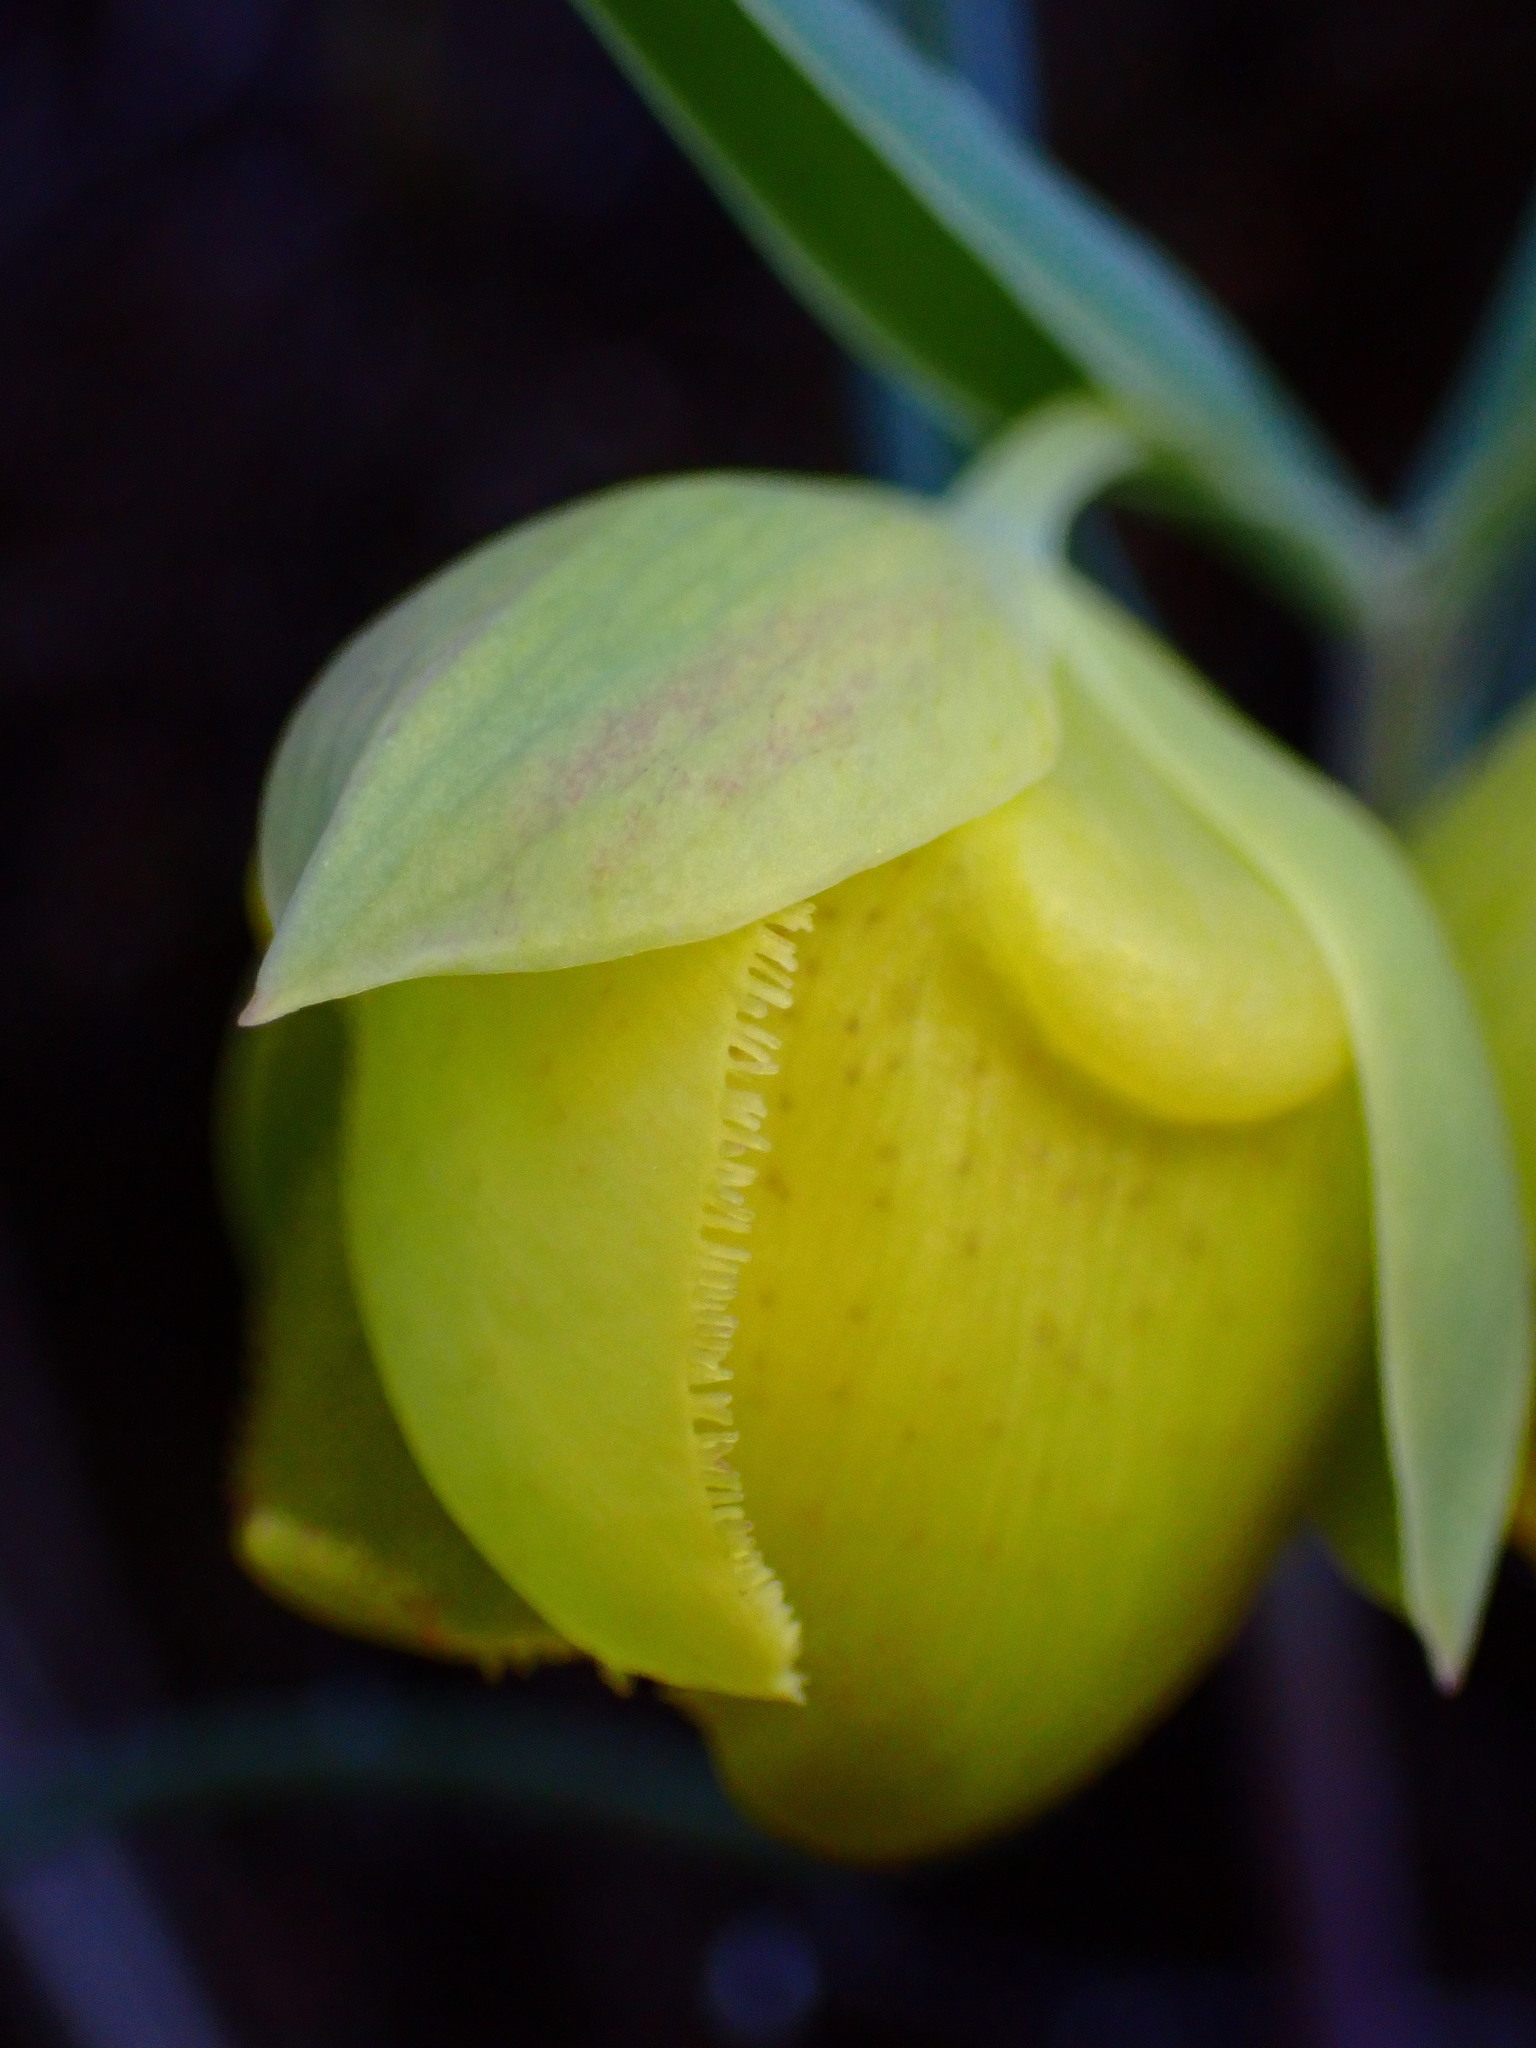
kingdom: Plantae
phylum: Tracheophyta
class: Liliopsida
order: Liliales
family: Liliaceae
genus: Calochortus
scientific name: Calochortus pulchellus
